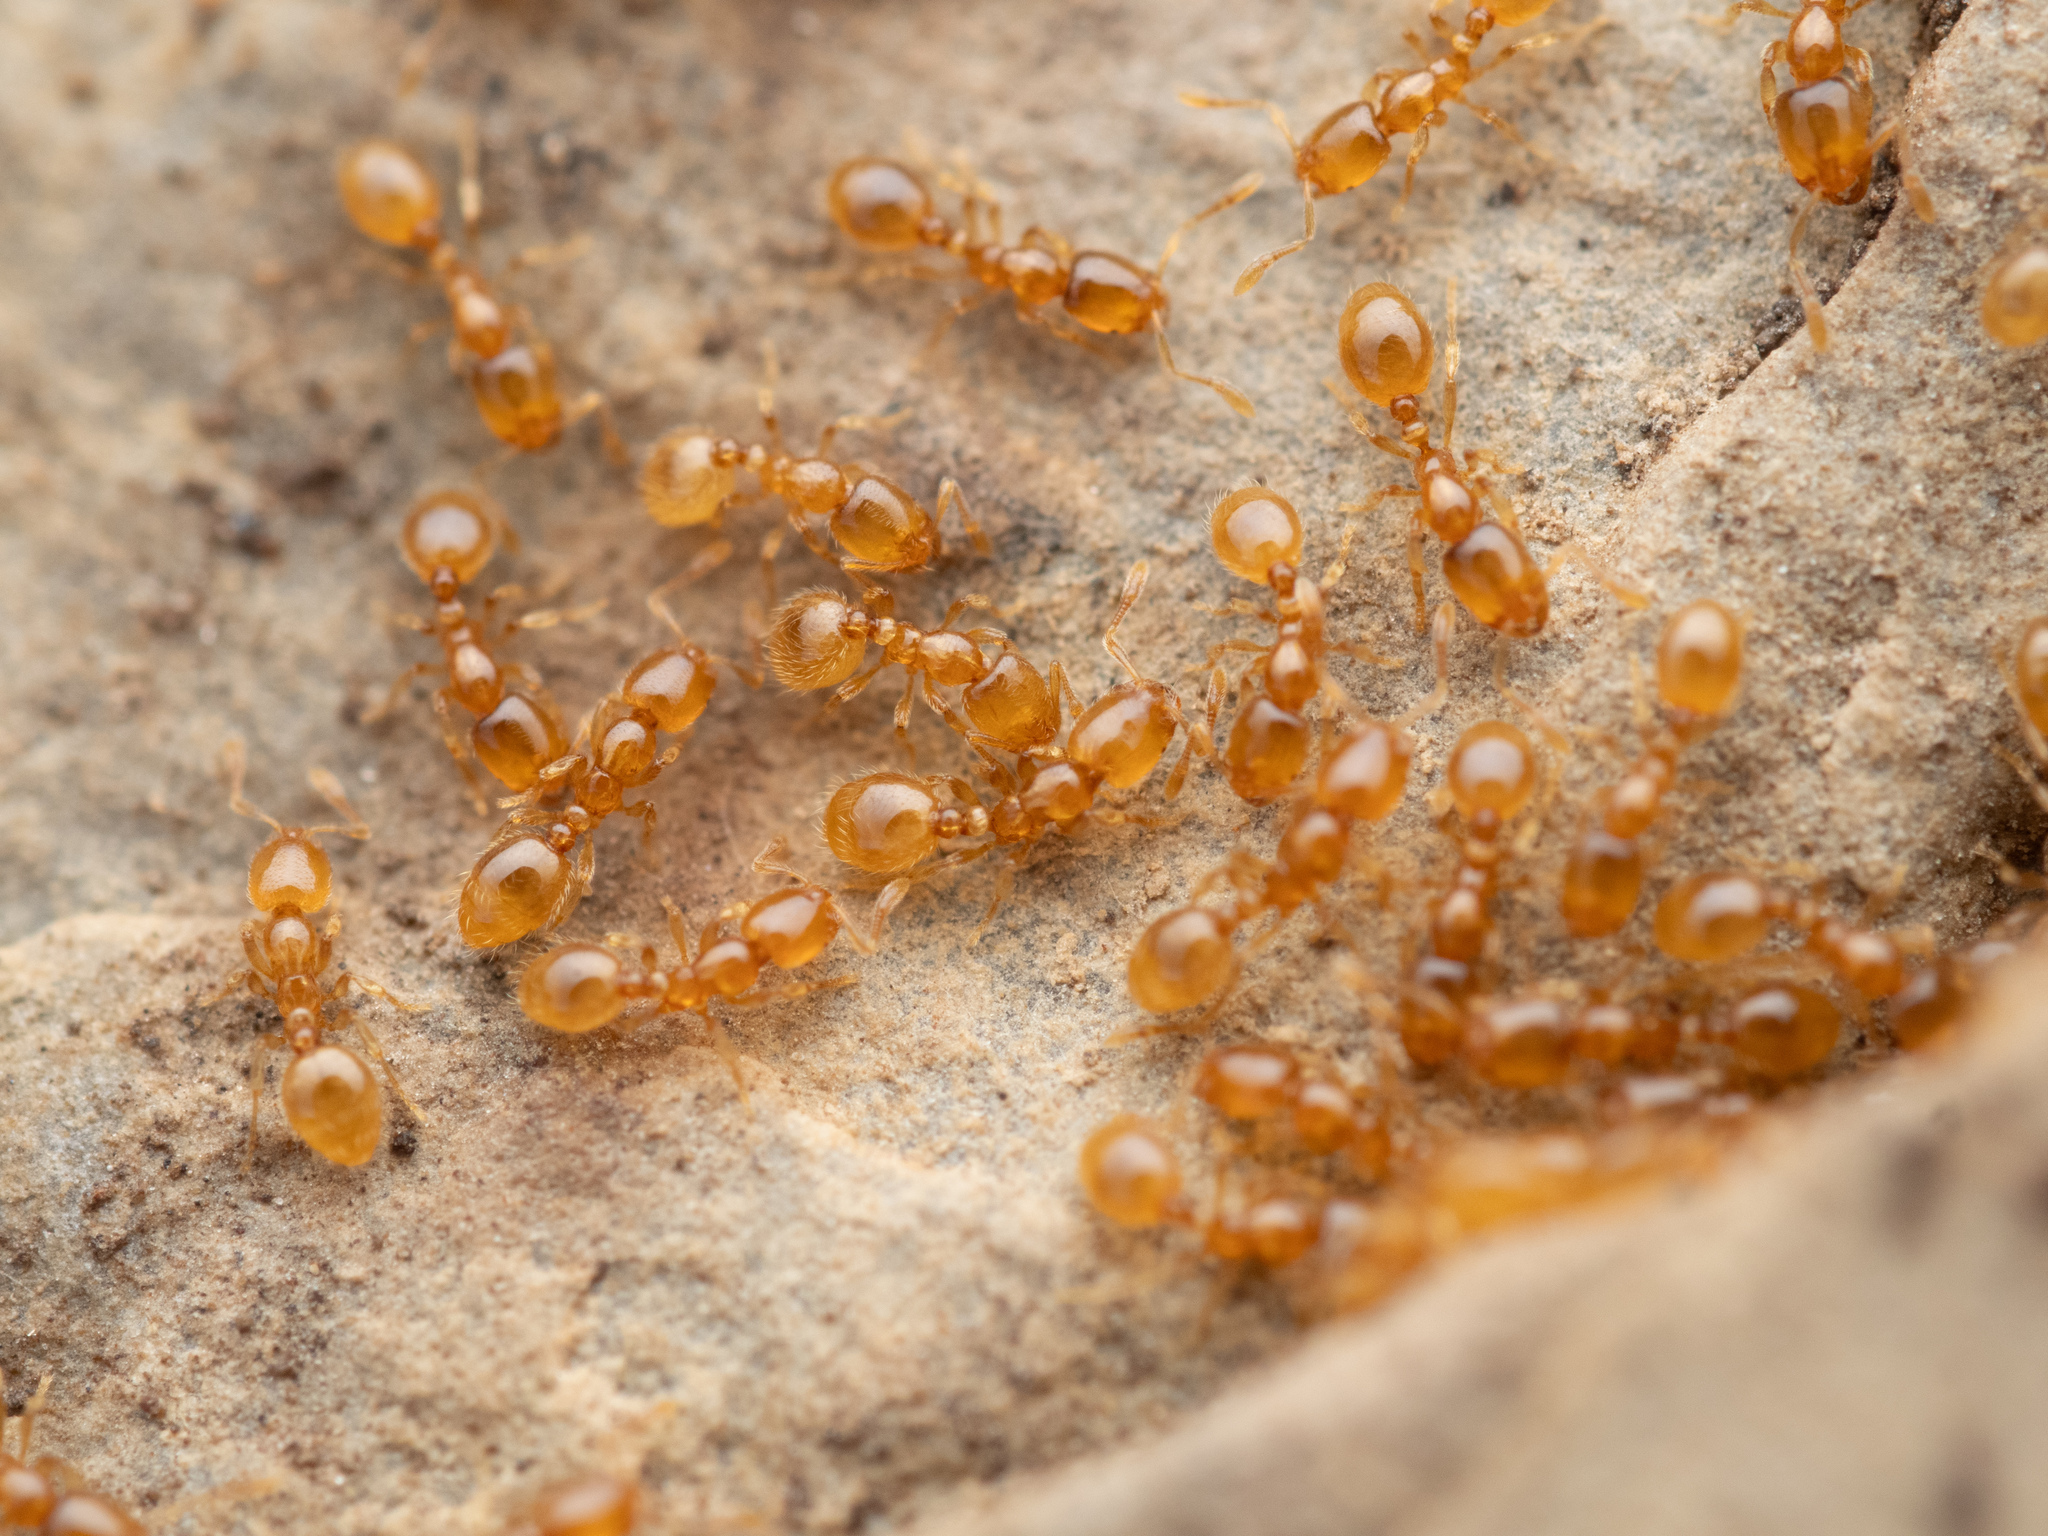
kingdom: Animalia
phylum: Arthropoda
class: Insecta
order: Hymenoptera
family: Formicidae
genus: Solenopsis
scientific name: Solenopsis fugax
